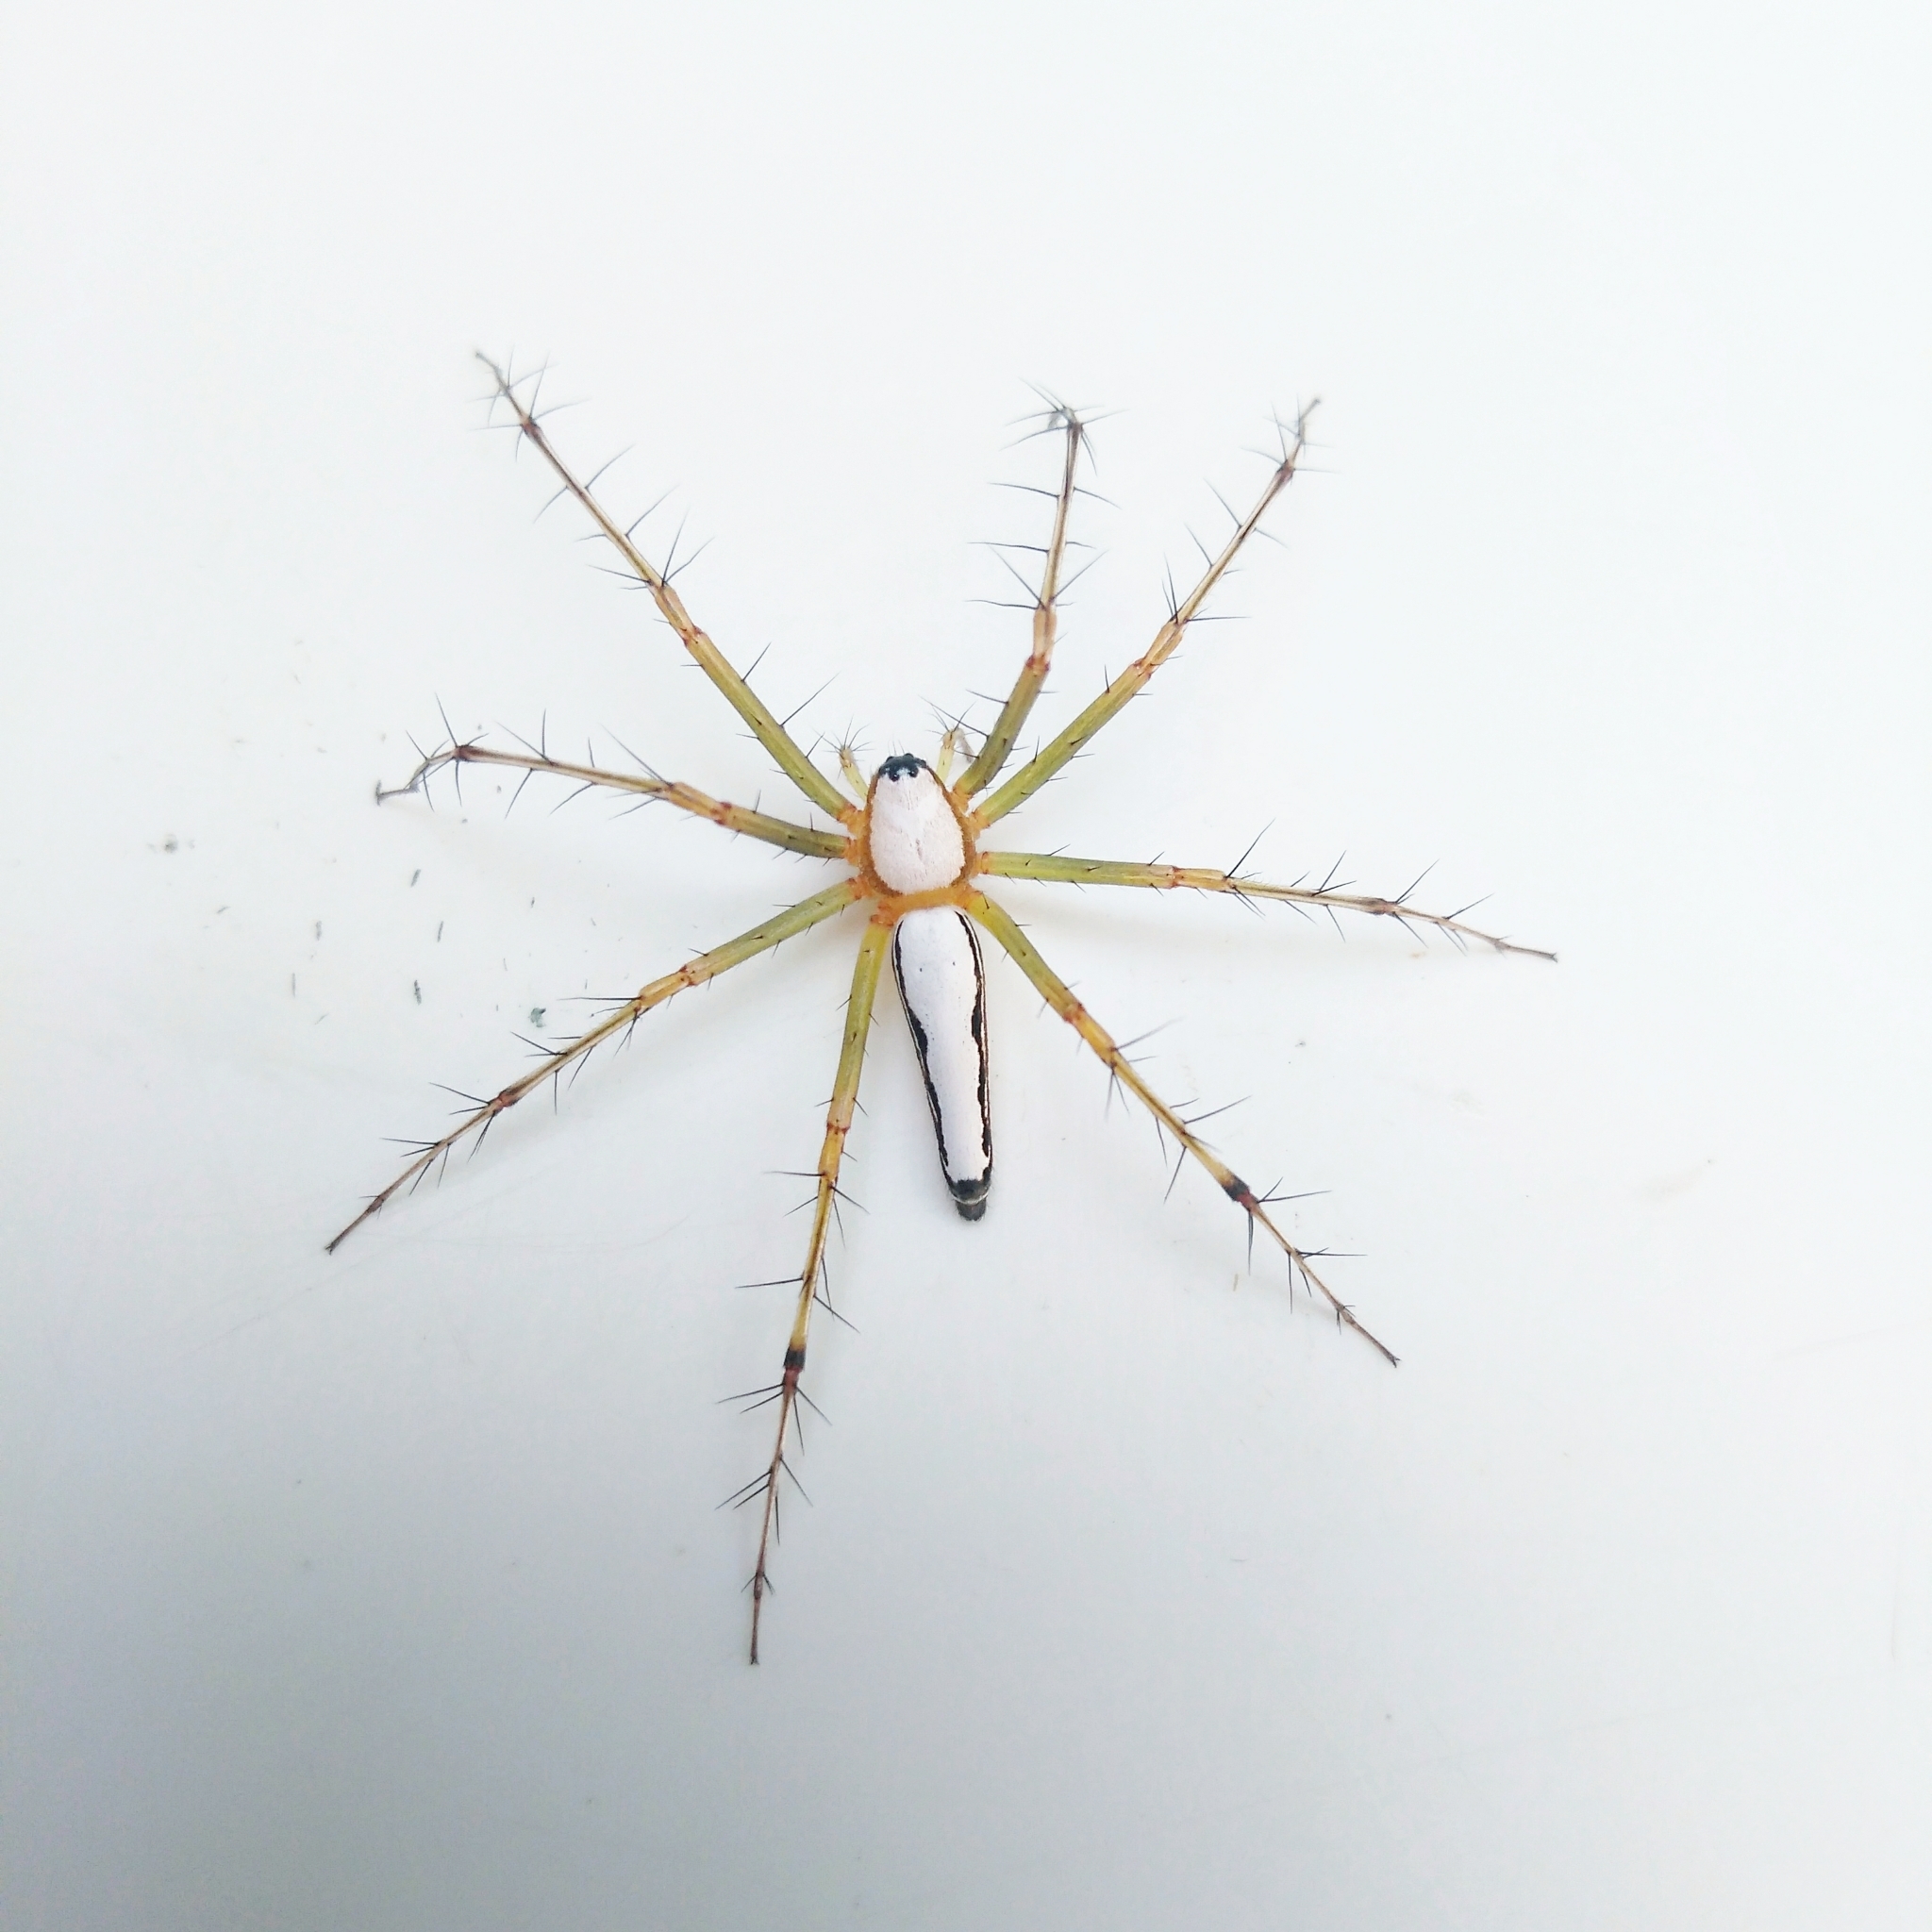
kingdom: Animalia
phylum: Arthropoda
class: Arachnida
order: Araneae
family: Oxyopidae
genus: Oxyopes
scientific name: Oxyopes shweta
